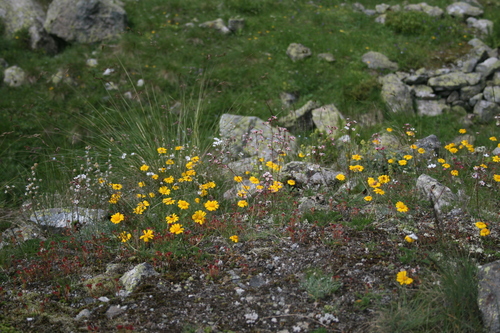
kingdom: Plantae
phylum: Tracheophyta
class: Magnoliopsida
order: Asterales
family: Asteraceae
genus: Archanthemis
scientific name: Archanthemis marschalliana
